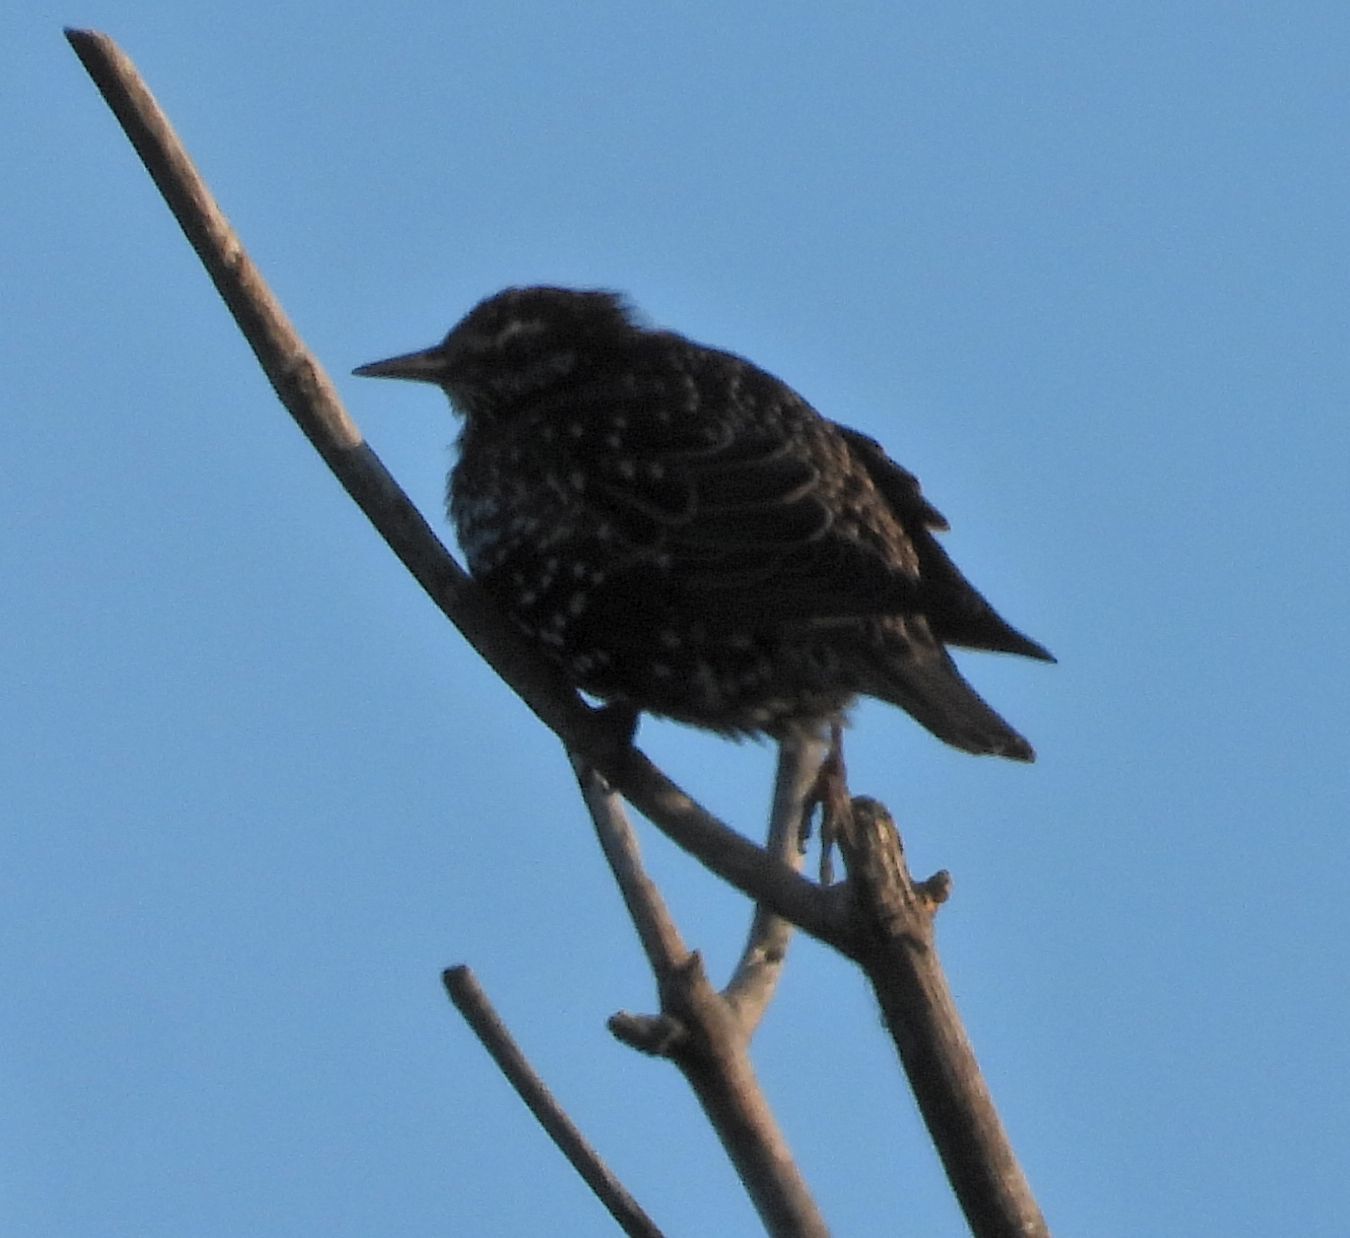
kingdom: Animalia
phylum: Chordata
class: Aves
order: Passeriformes
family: Sturnidae
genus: Sturnus
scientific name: Sturnus vulgaris
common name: Common starling
